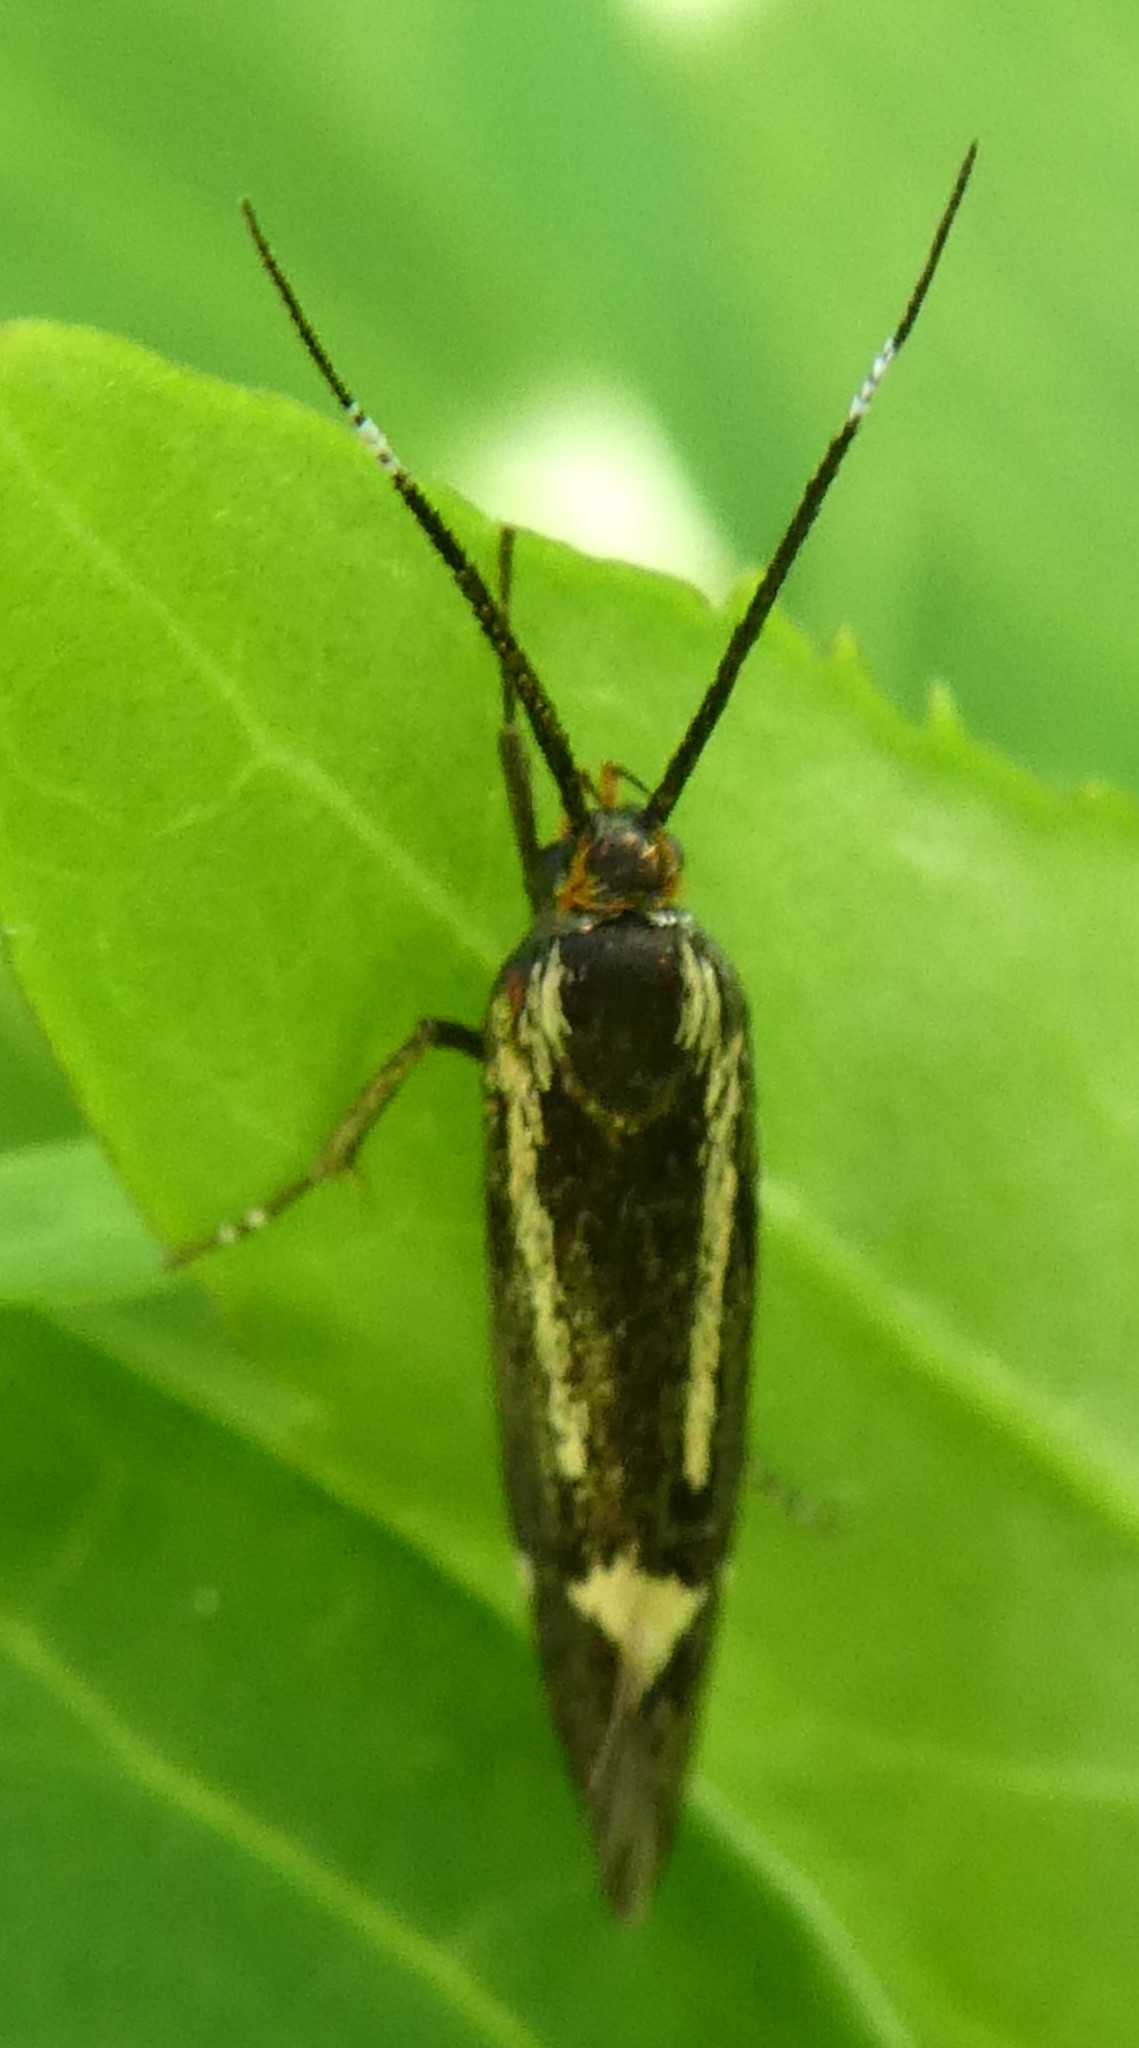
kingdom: Animalia
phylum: Arthropoda
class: Insecta
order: Lepidoptera
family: Oecophoridae
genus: Dafa
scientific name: Dafa Esperia sulphurella
